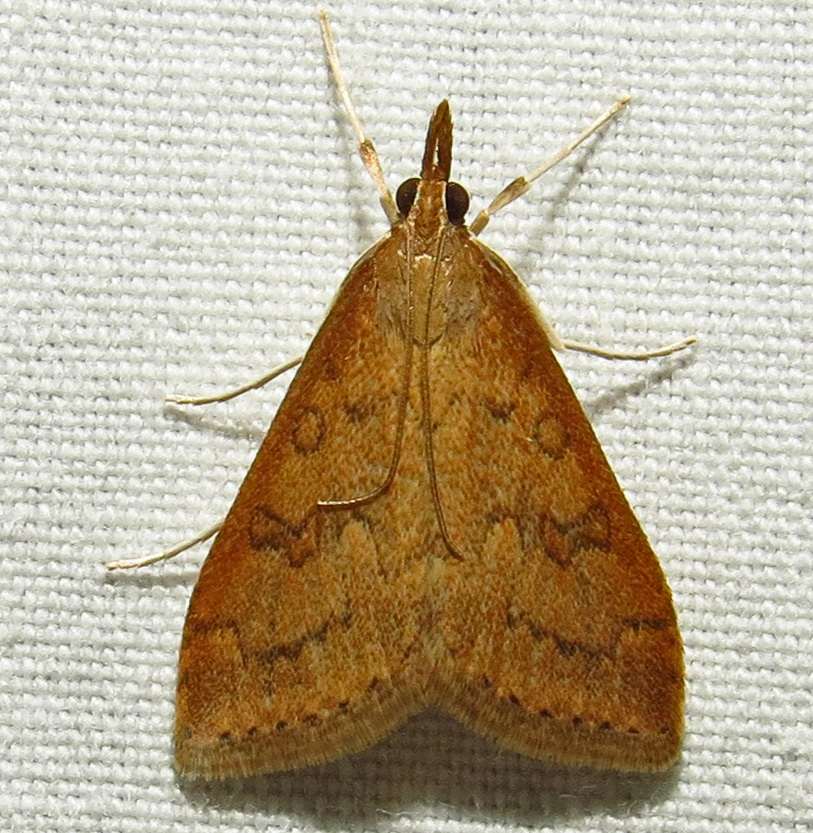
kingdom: Animalia
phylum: Arthropoda
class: Insecta
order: Lepidoptera
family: Crambidae
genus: Udea
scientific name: Udea rubigalis
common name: Celery leaftier moth
